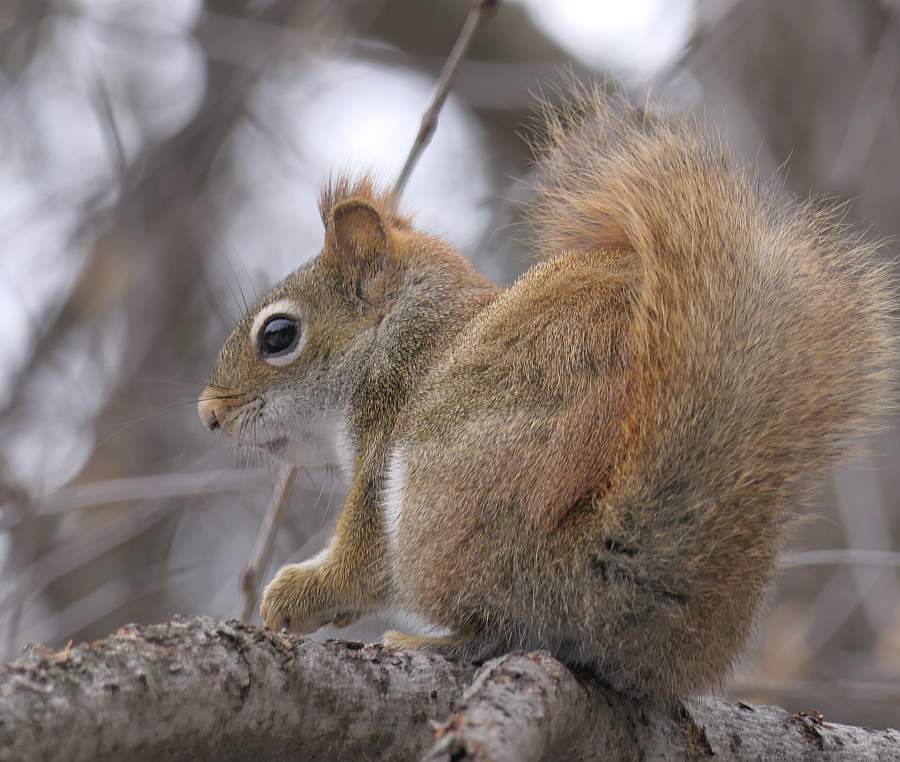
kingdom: Animalia
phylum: Chordata
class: Mammalia
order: Rodentia
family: Sciuridae
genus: Tamiasciurus
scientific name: Tamiasciurus hudsonicus
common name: Red squirrel
